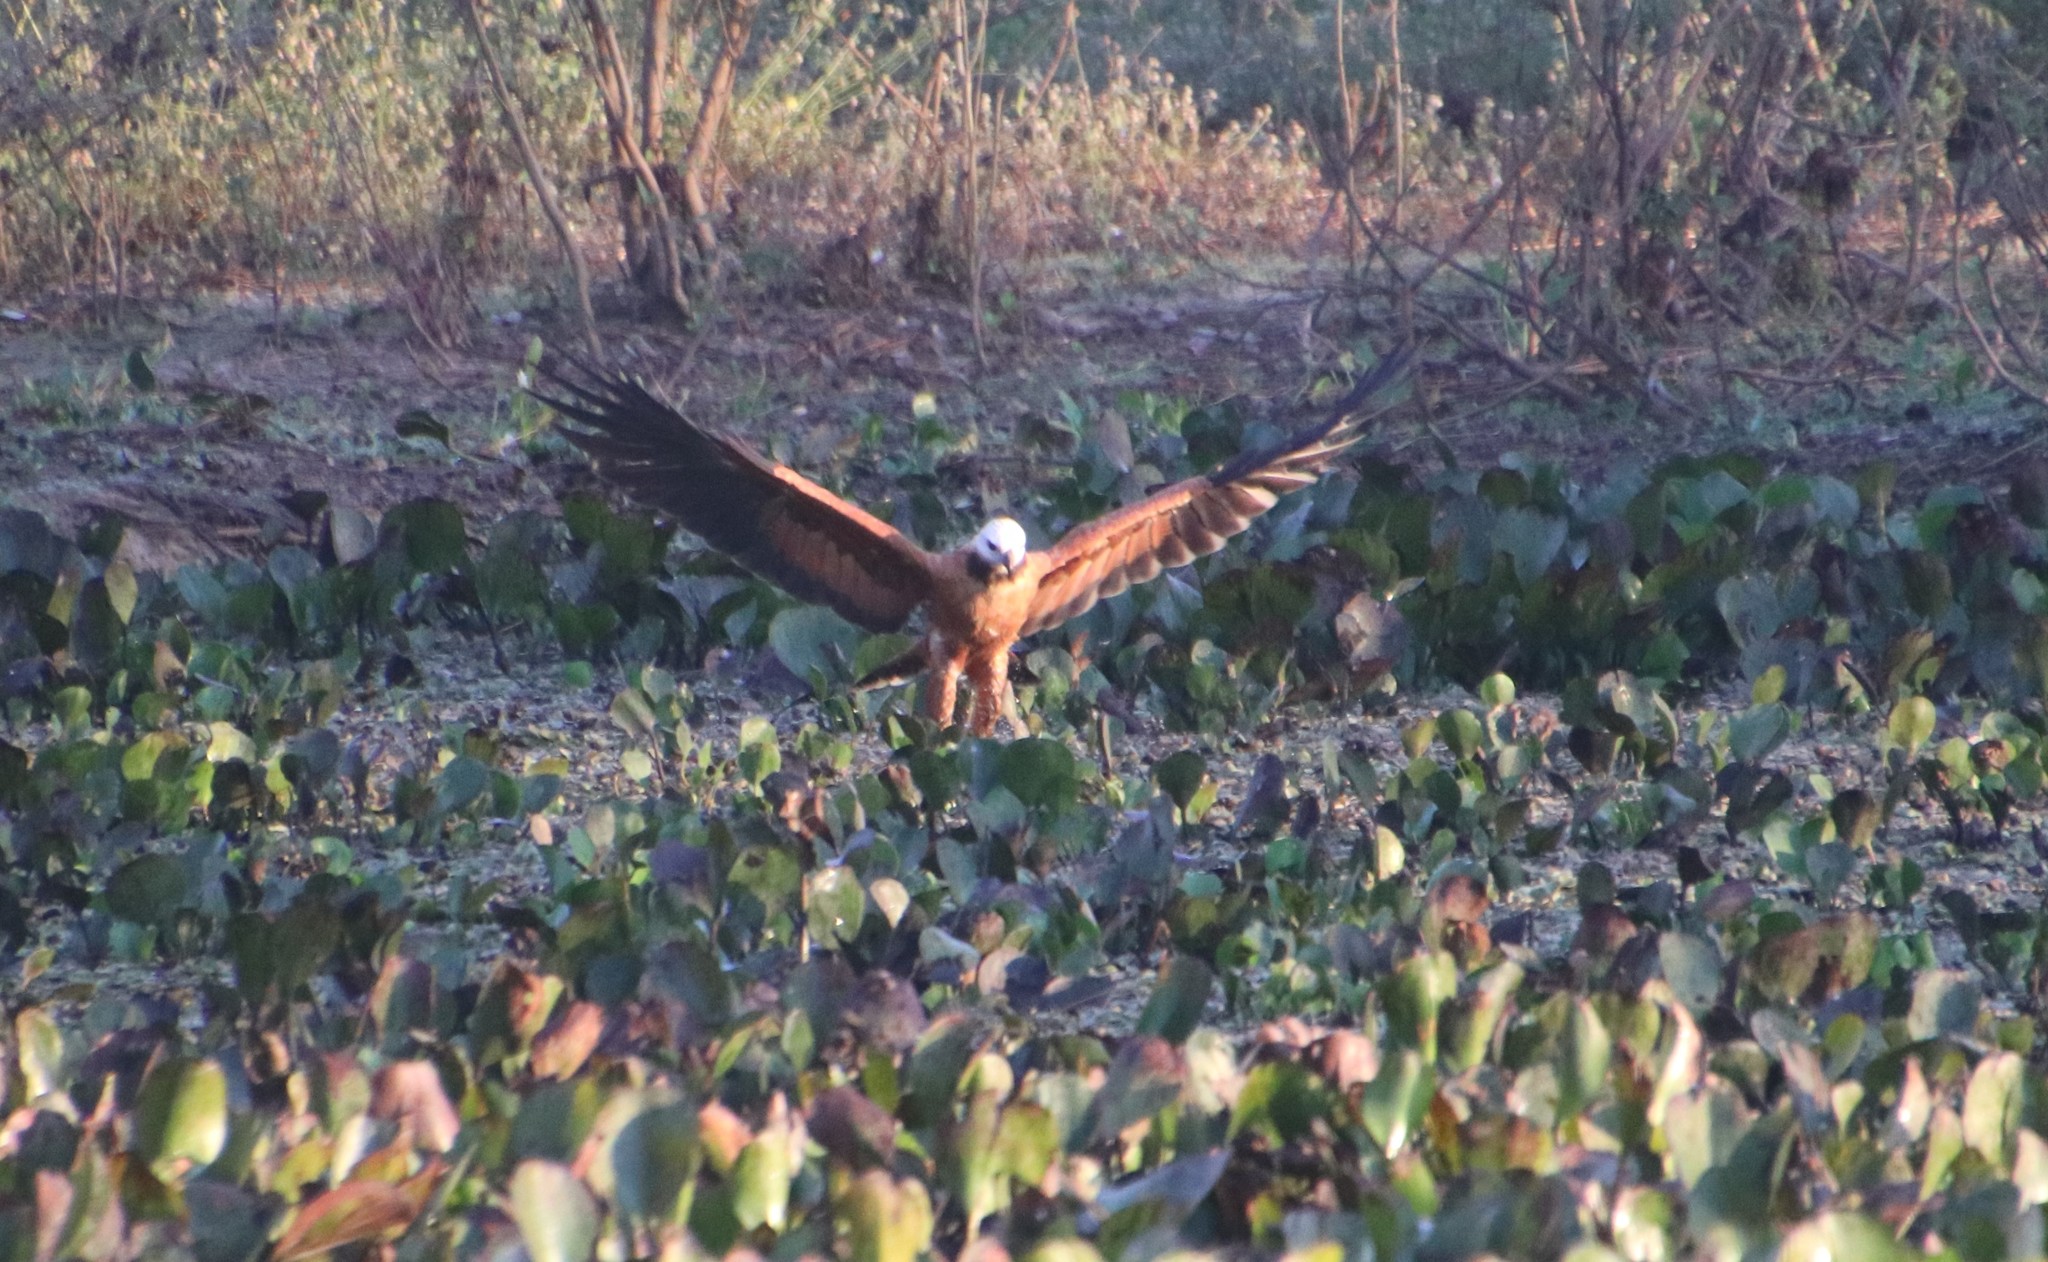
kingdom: Animalia
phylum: Chordata
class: Aves
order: Accipitriformes
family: Accipitridae
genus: Busarellus
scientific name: Busarellus nigricollis
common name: Black-collared hawk
